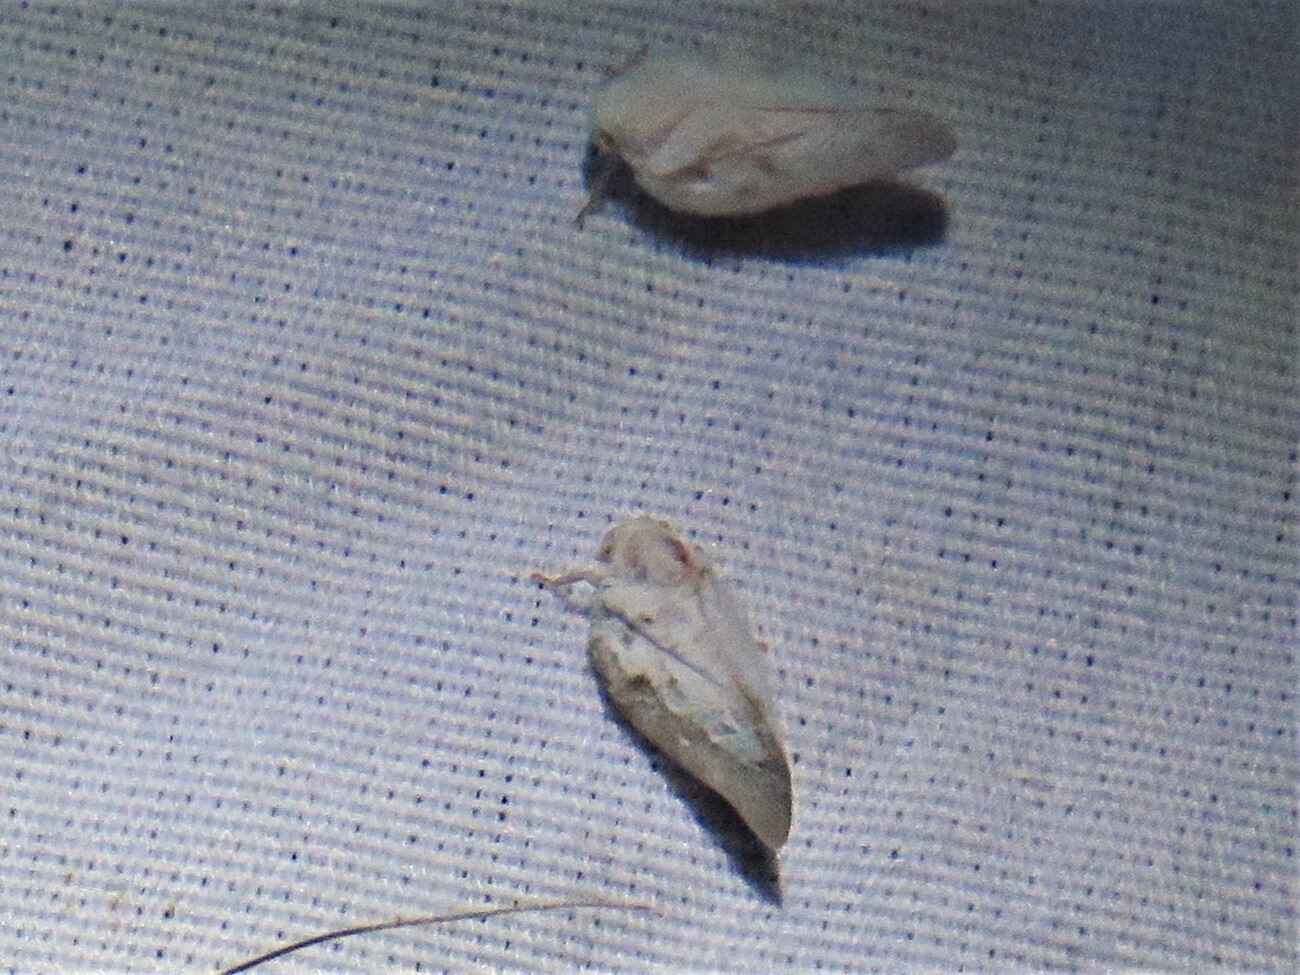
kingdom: Animalia
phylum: Arthropoda
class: Insecta
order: Hemiptera
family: Flatidae
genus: Metcalfa
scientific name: Metcalfa pruinosa
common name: Citrus flatid planthopper
